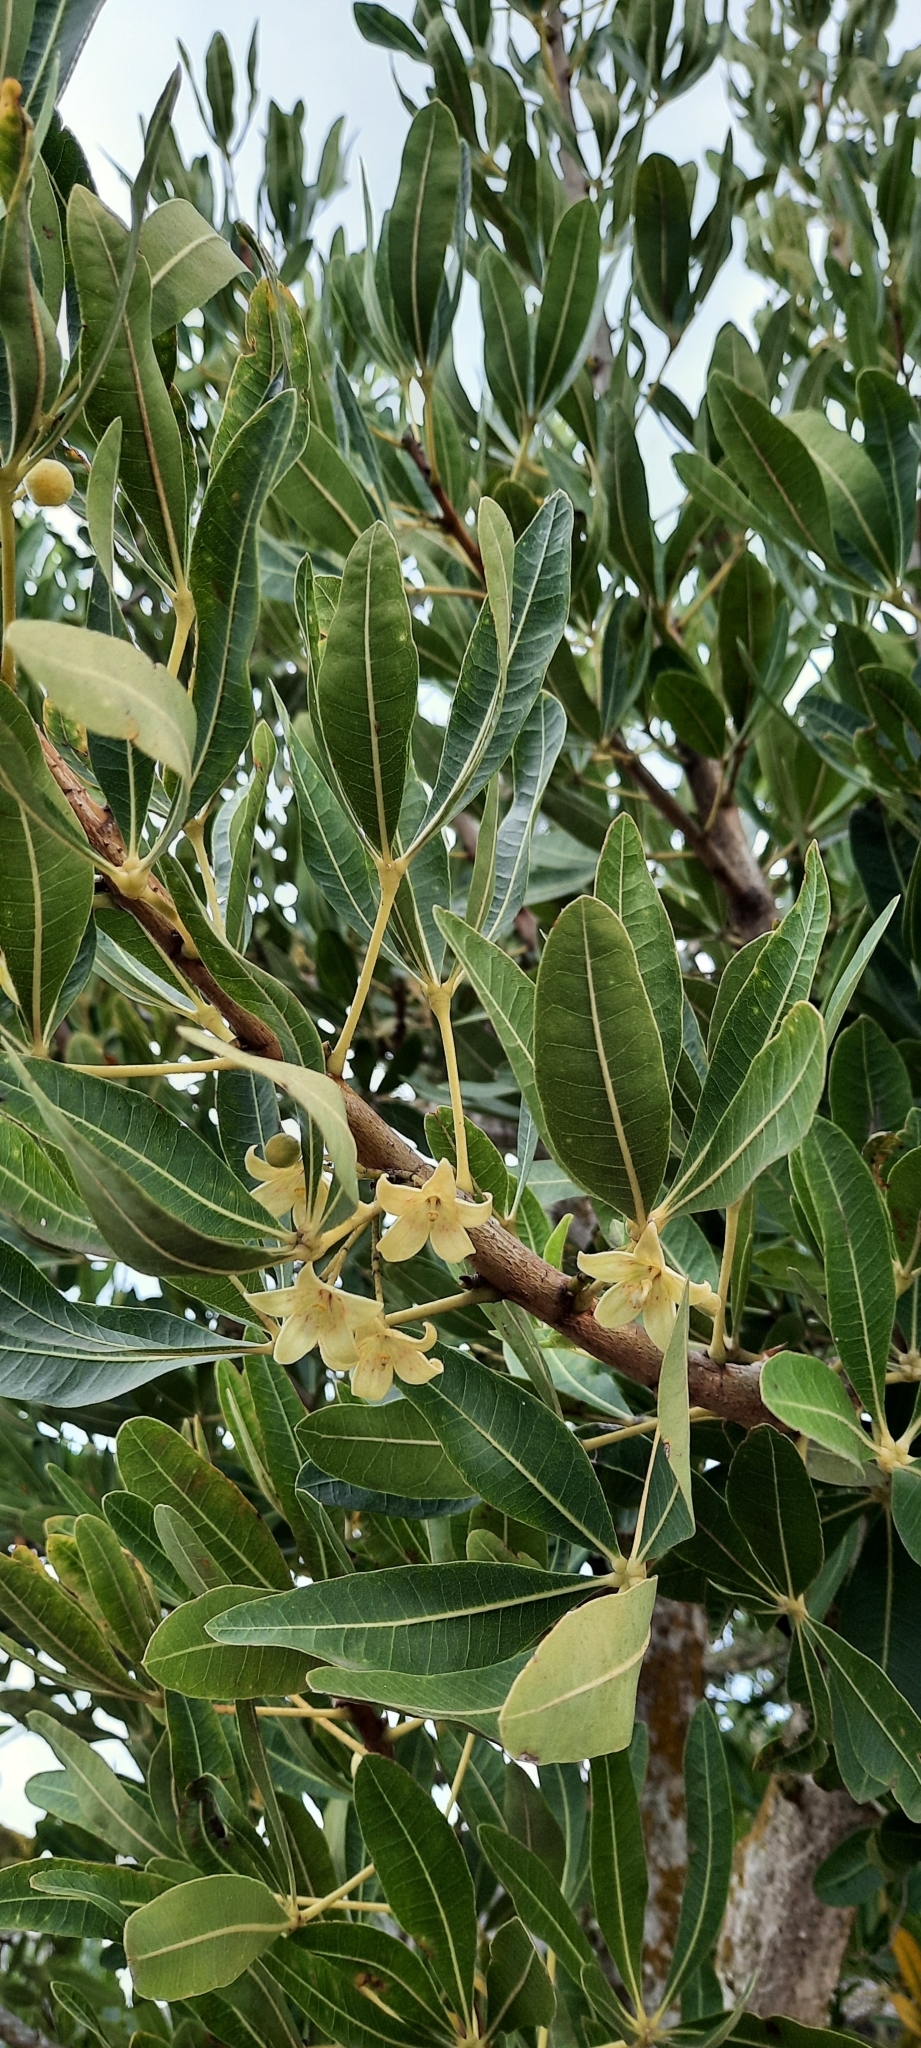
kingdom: Plantae
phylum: Tracheophyta
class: Magnoliopsida
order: Malvales
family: Malvaceae
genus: Sterculia
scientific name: Sterculia alexandri
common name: Cape star-chestnut
